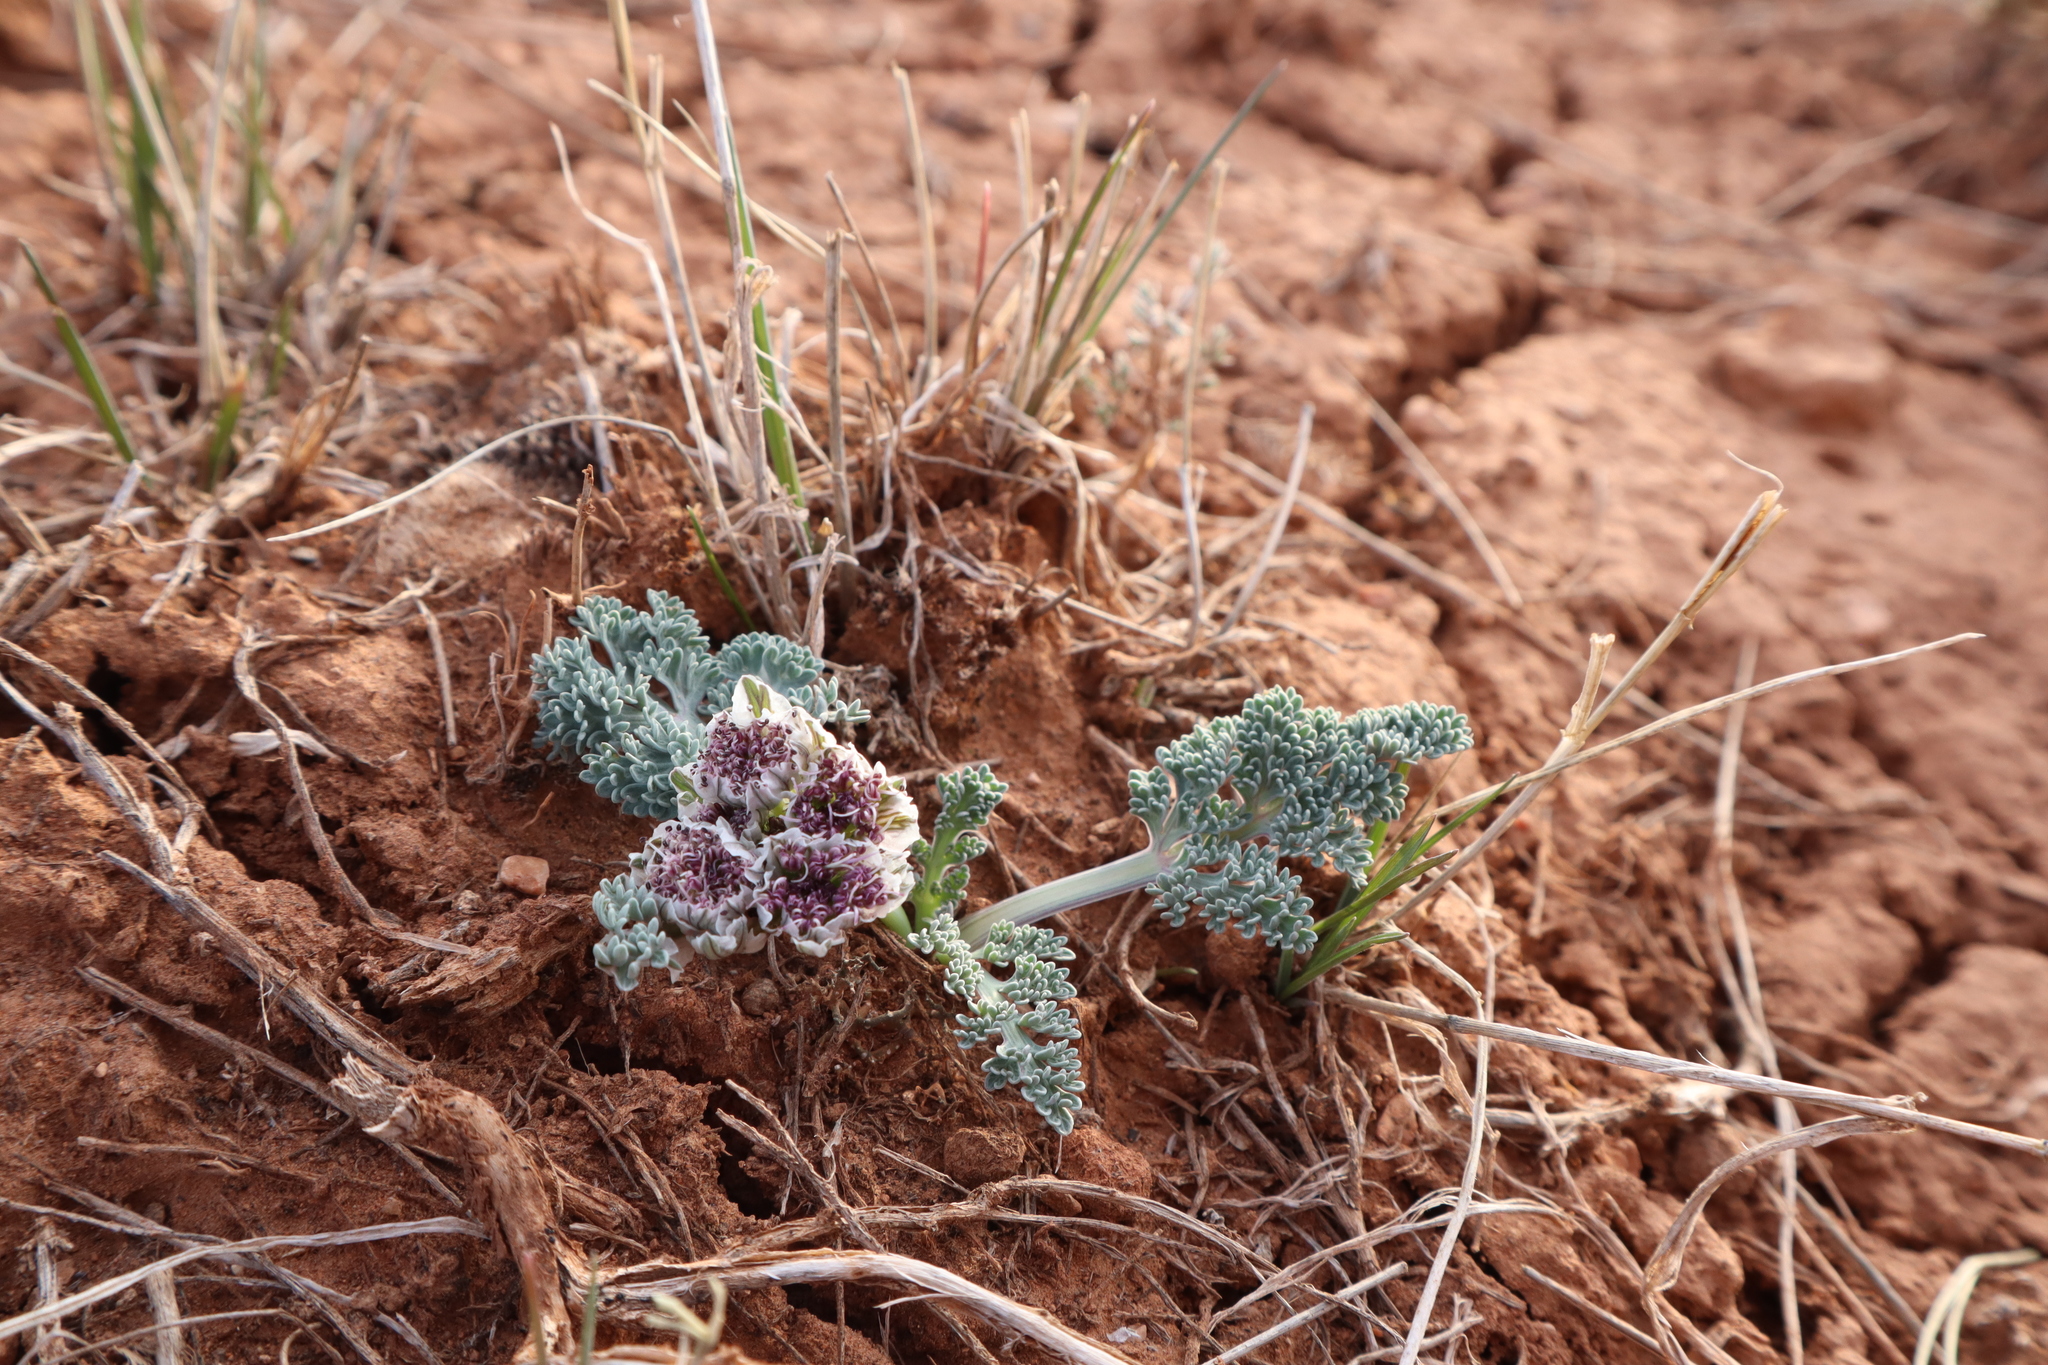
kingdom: Plantae
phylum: Tracheophyta
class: Magnoliopsida
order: Apiales
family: Apiaceae
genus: Vesper
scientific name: Vesper purpurascens
